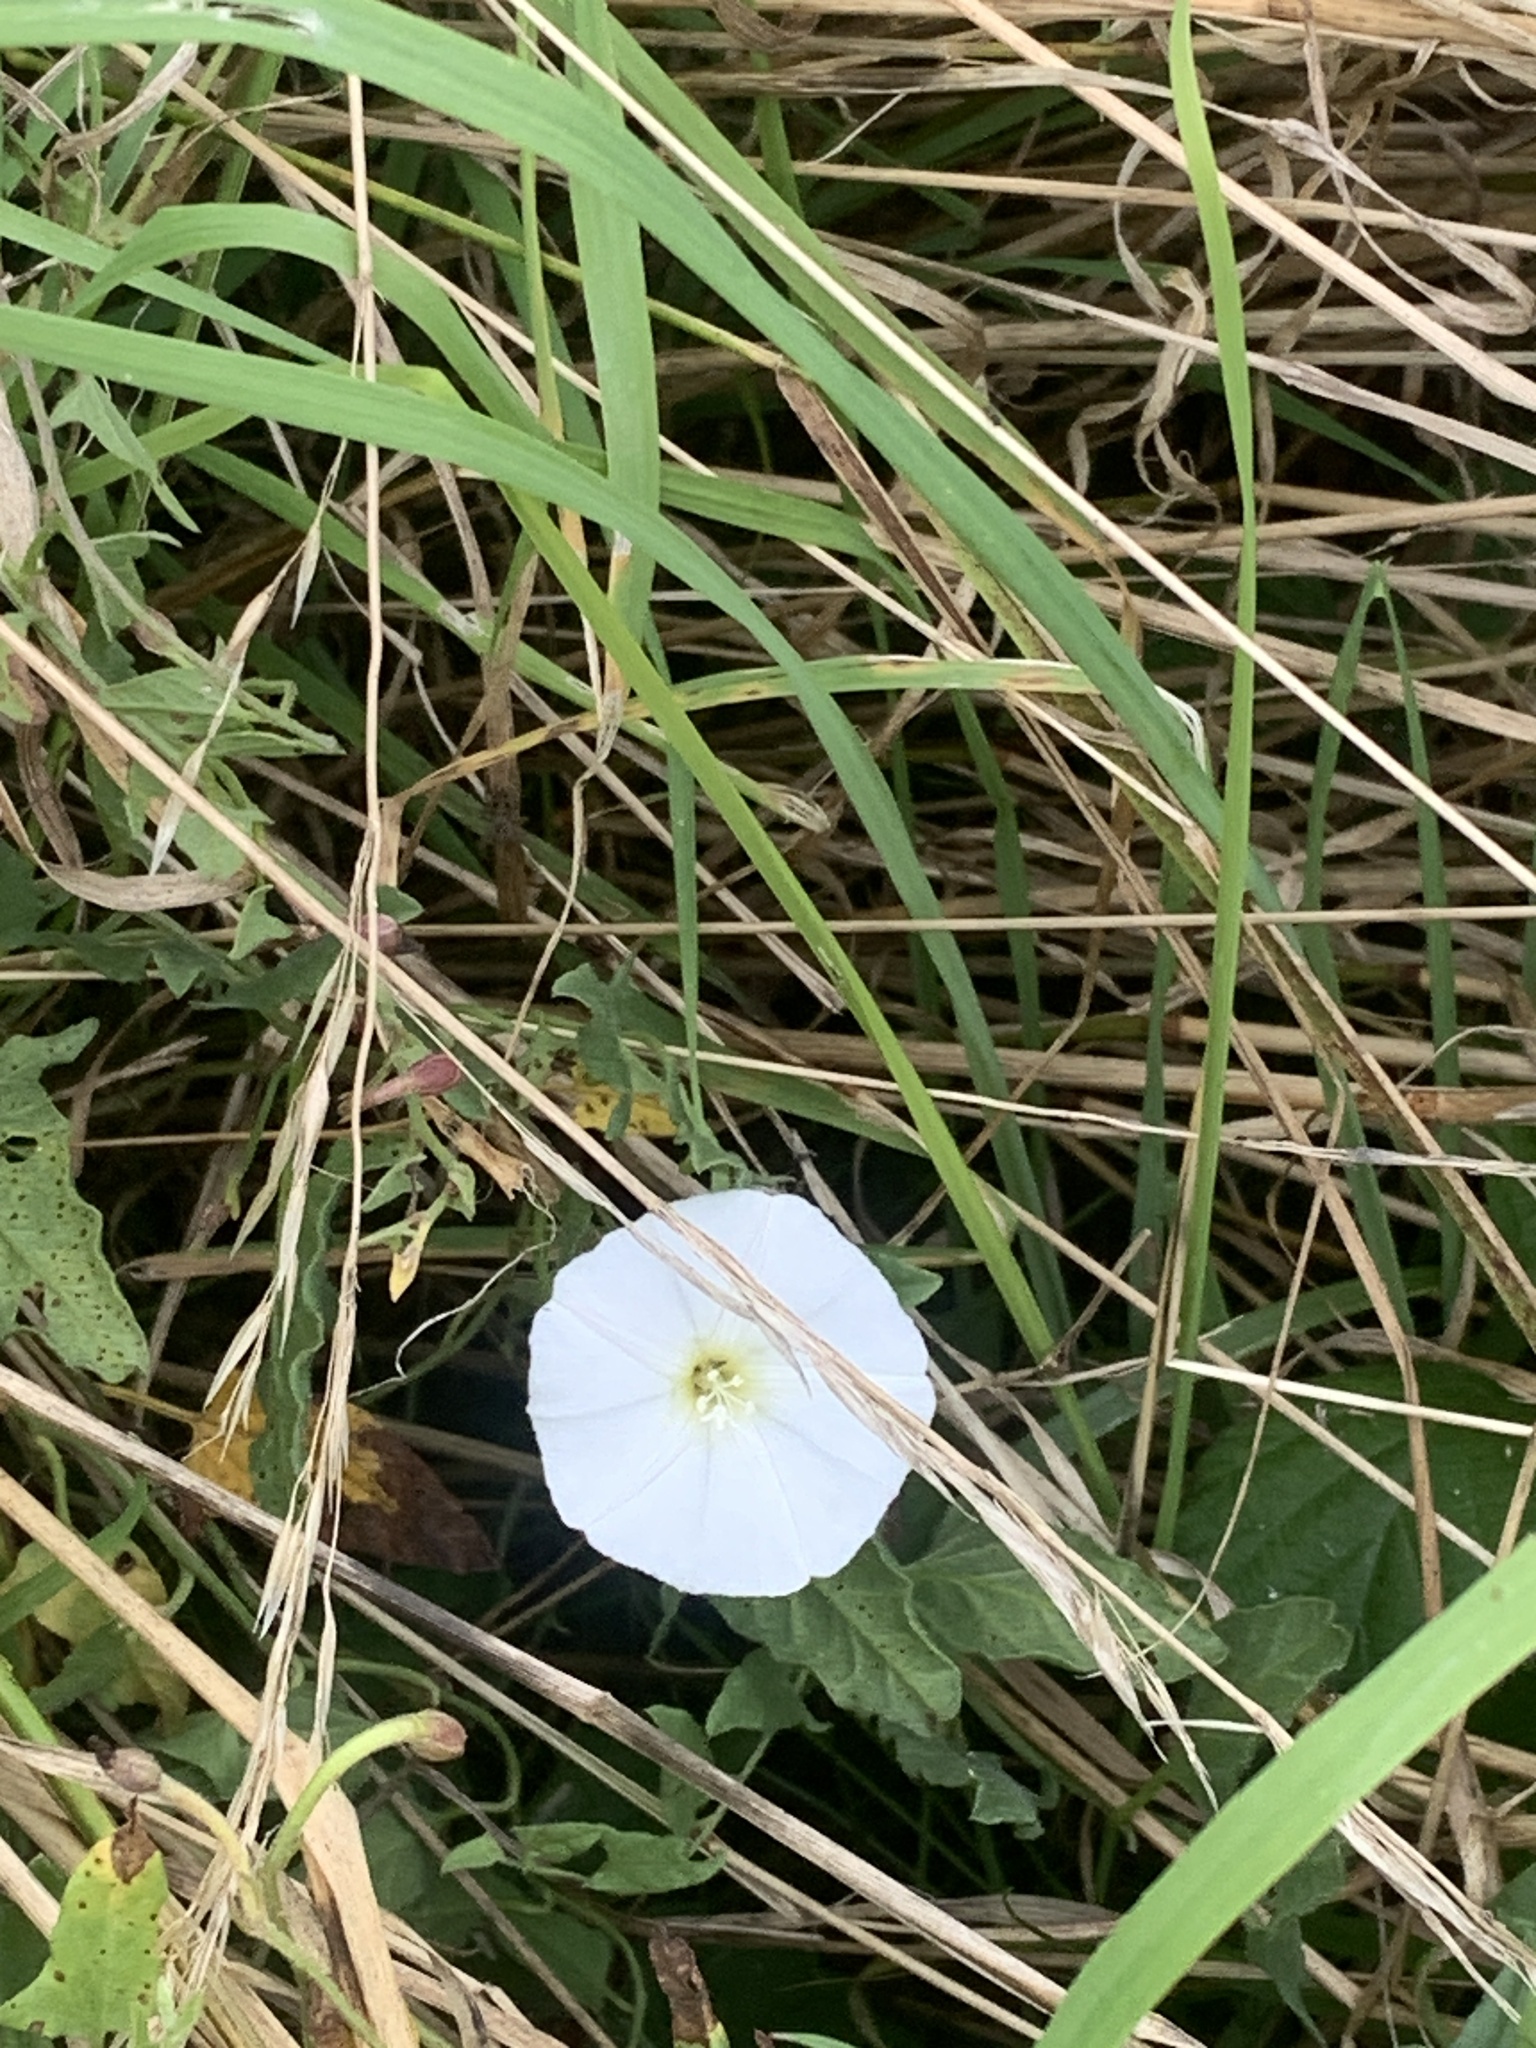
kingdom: Plantae
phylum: Tracheophyta
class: Magnoliopsida
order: Solanales
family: Convolvulaceae
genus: Convolvulus
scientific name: Convolvulus arvensis
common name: Field bindweed
